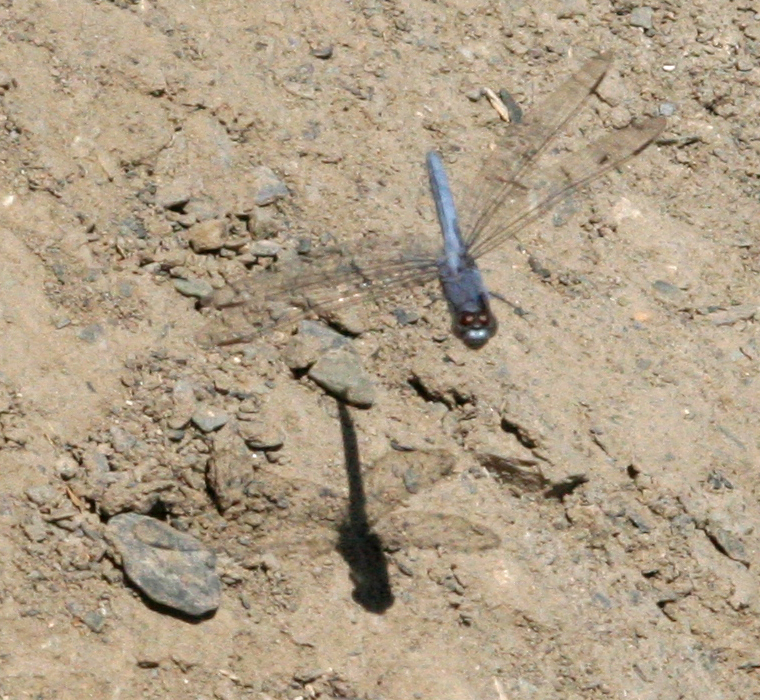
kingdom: Animalia
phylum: Arthropoda
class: Insecta
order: Odonata
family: Libellulidae
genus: Orthetrum
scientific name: Orthetrum taeniolatum
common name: Small skimmer
